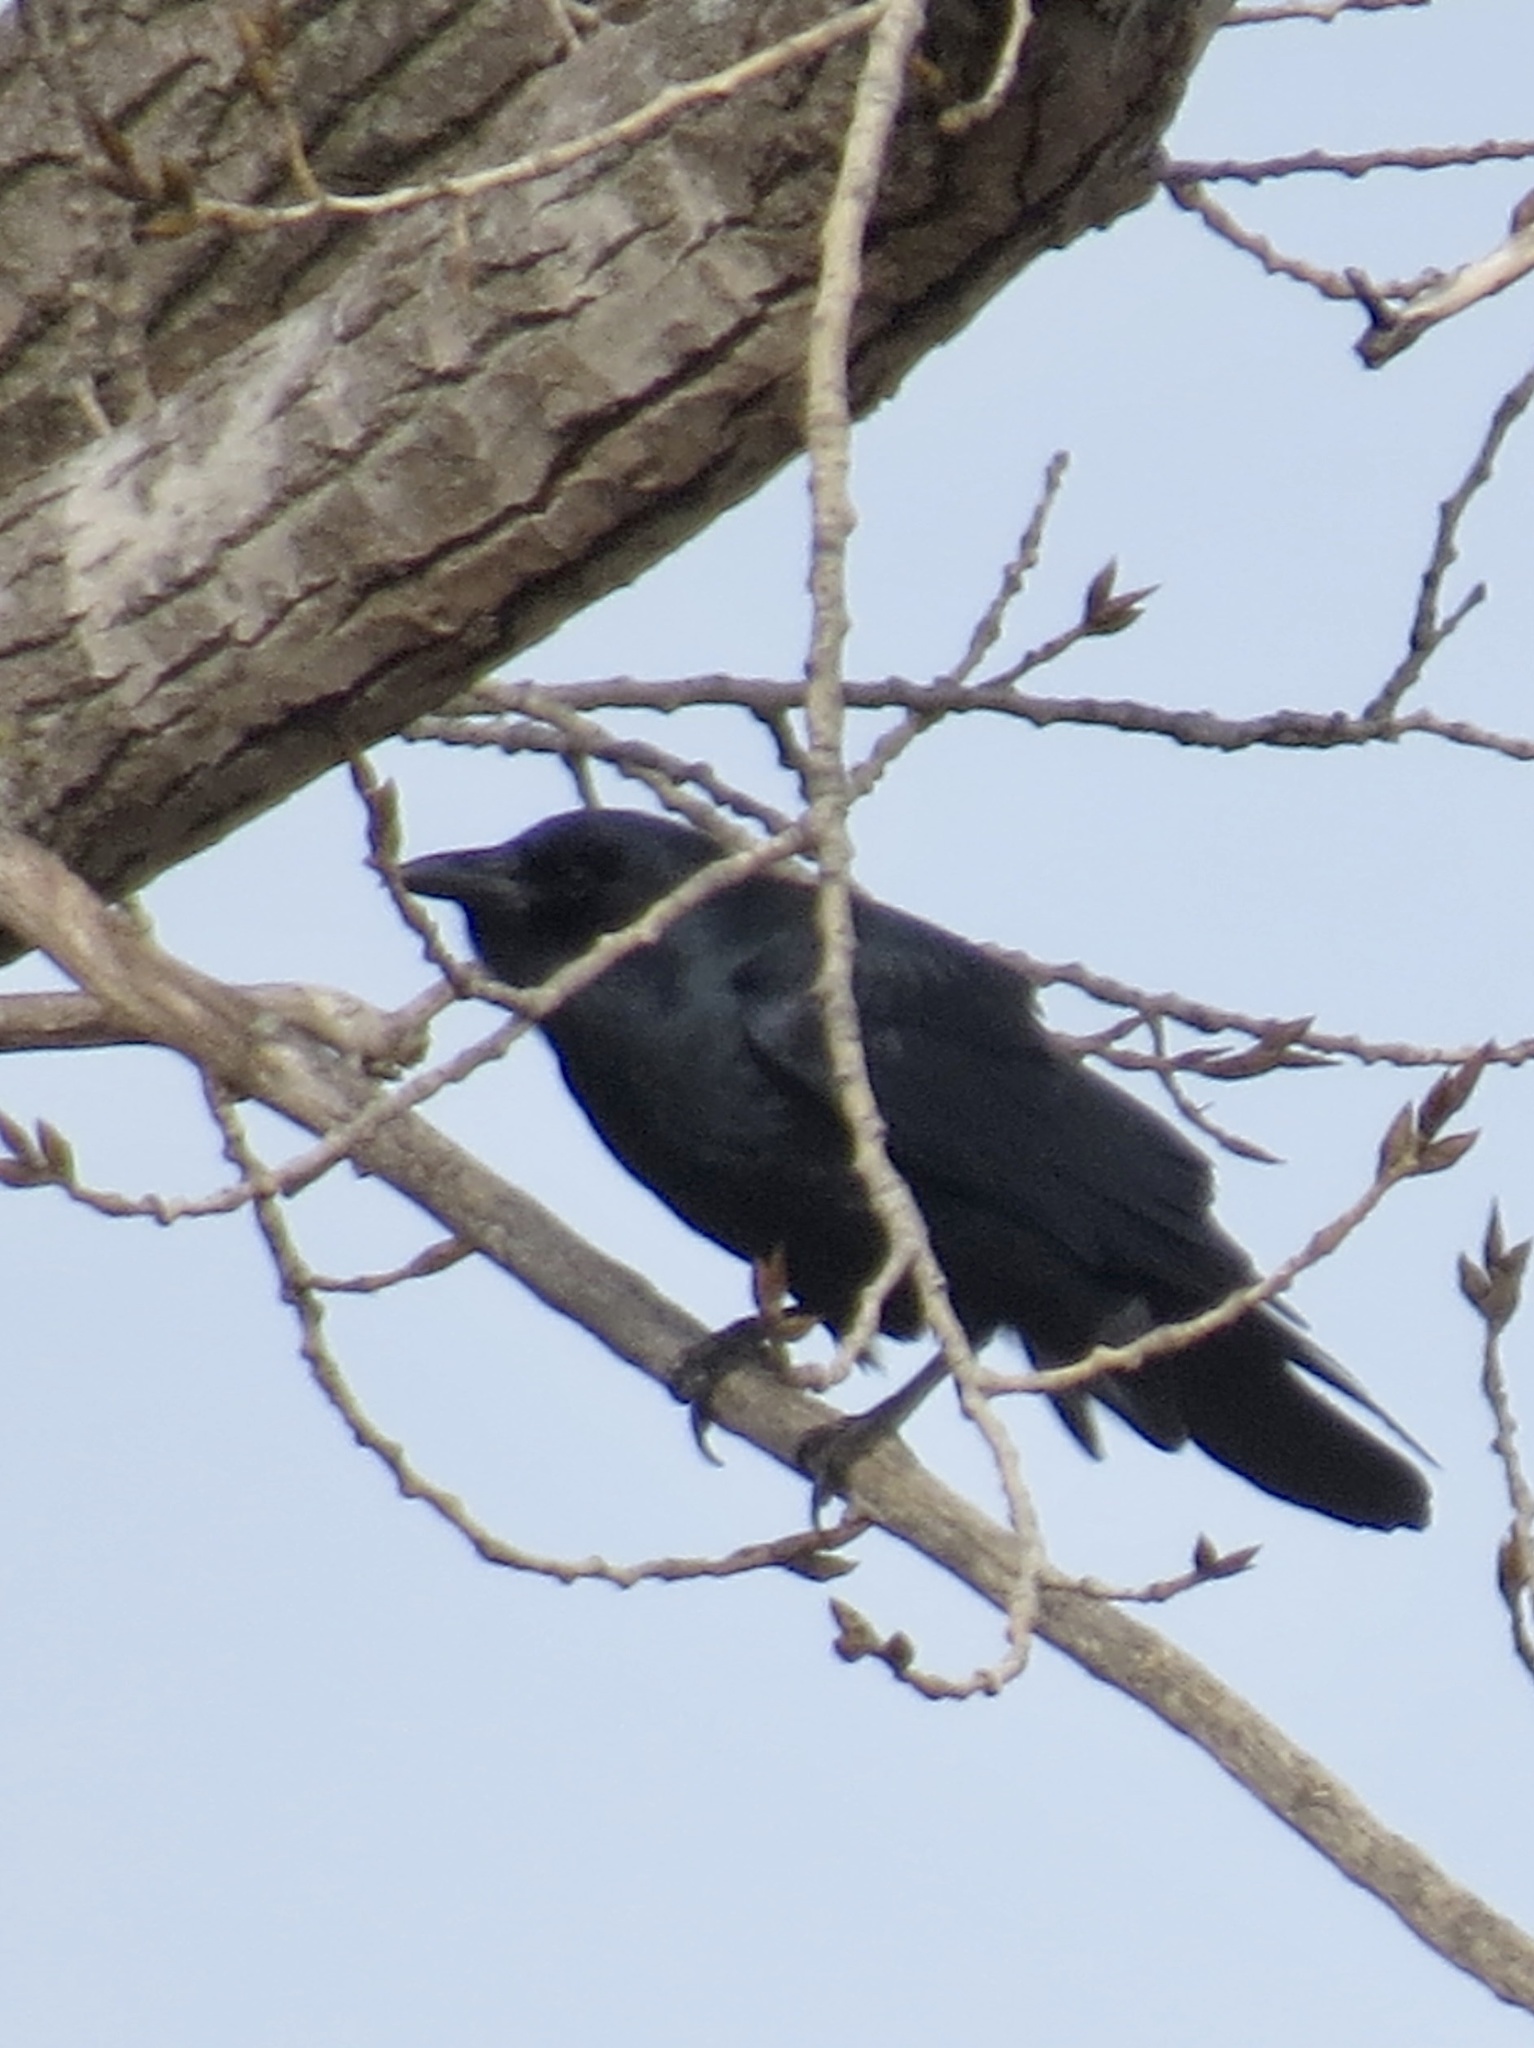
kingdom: Animalia
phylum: Chordata
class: Aves
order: Passeriformes
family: Corvidae
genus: Corvus
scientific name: Corvus
